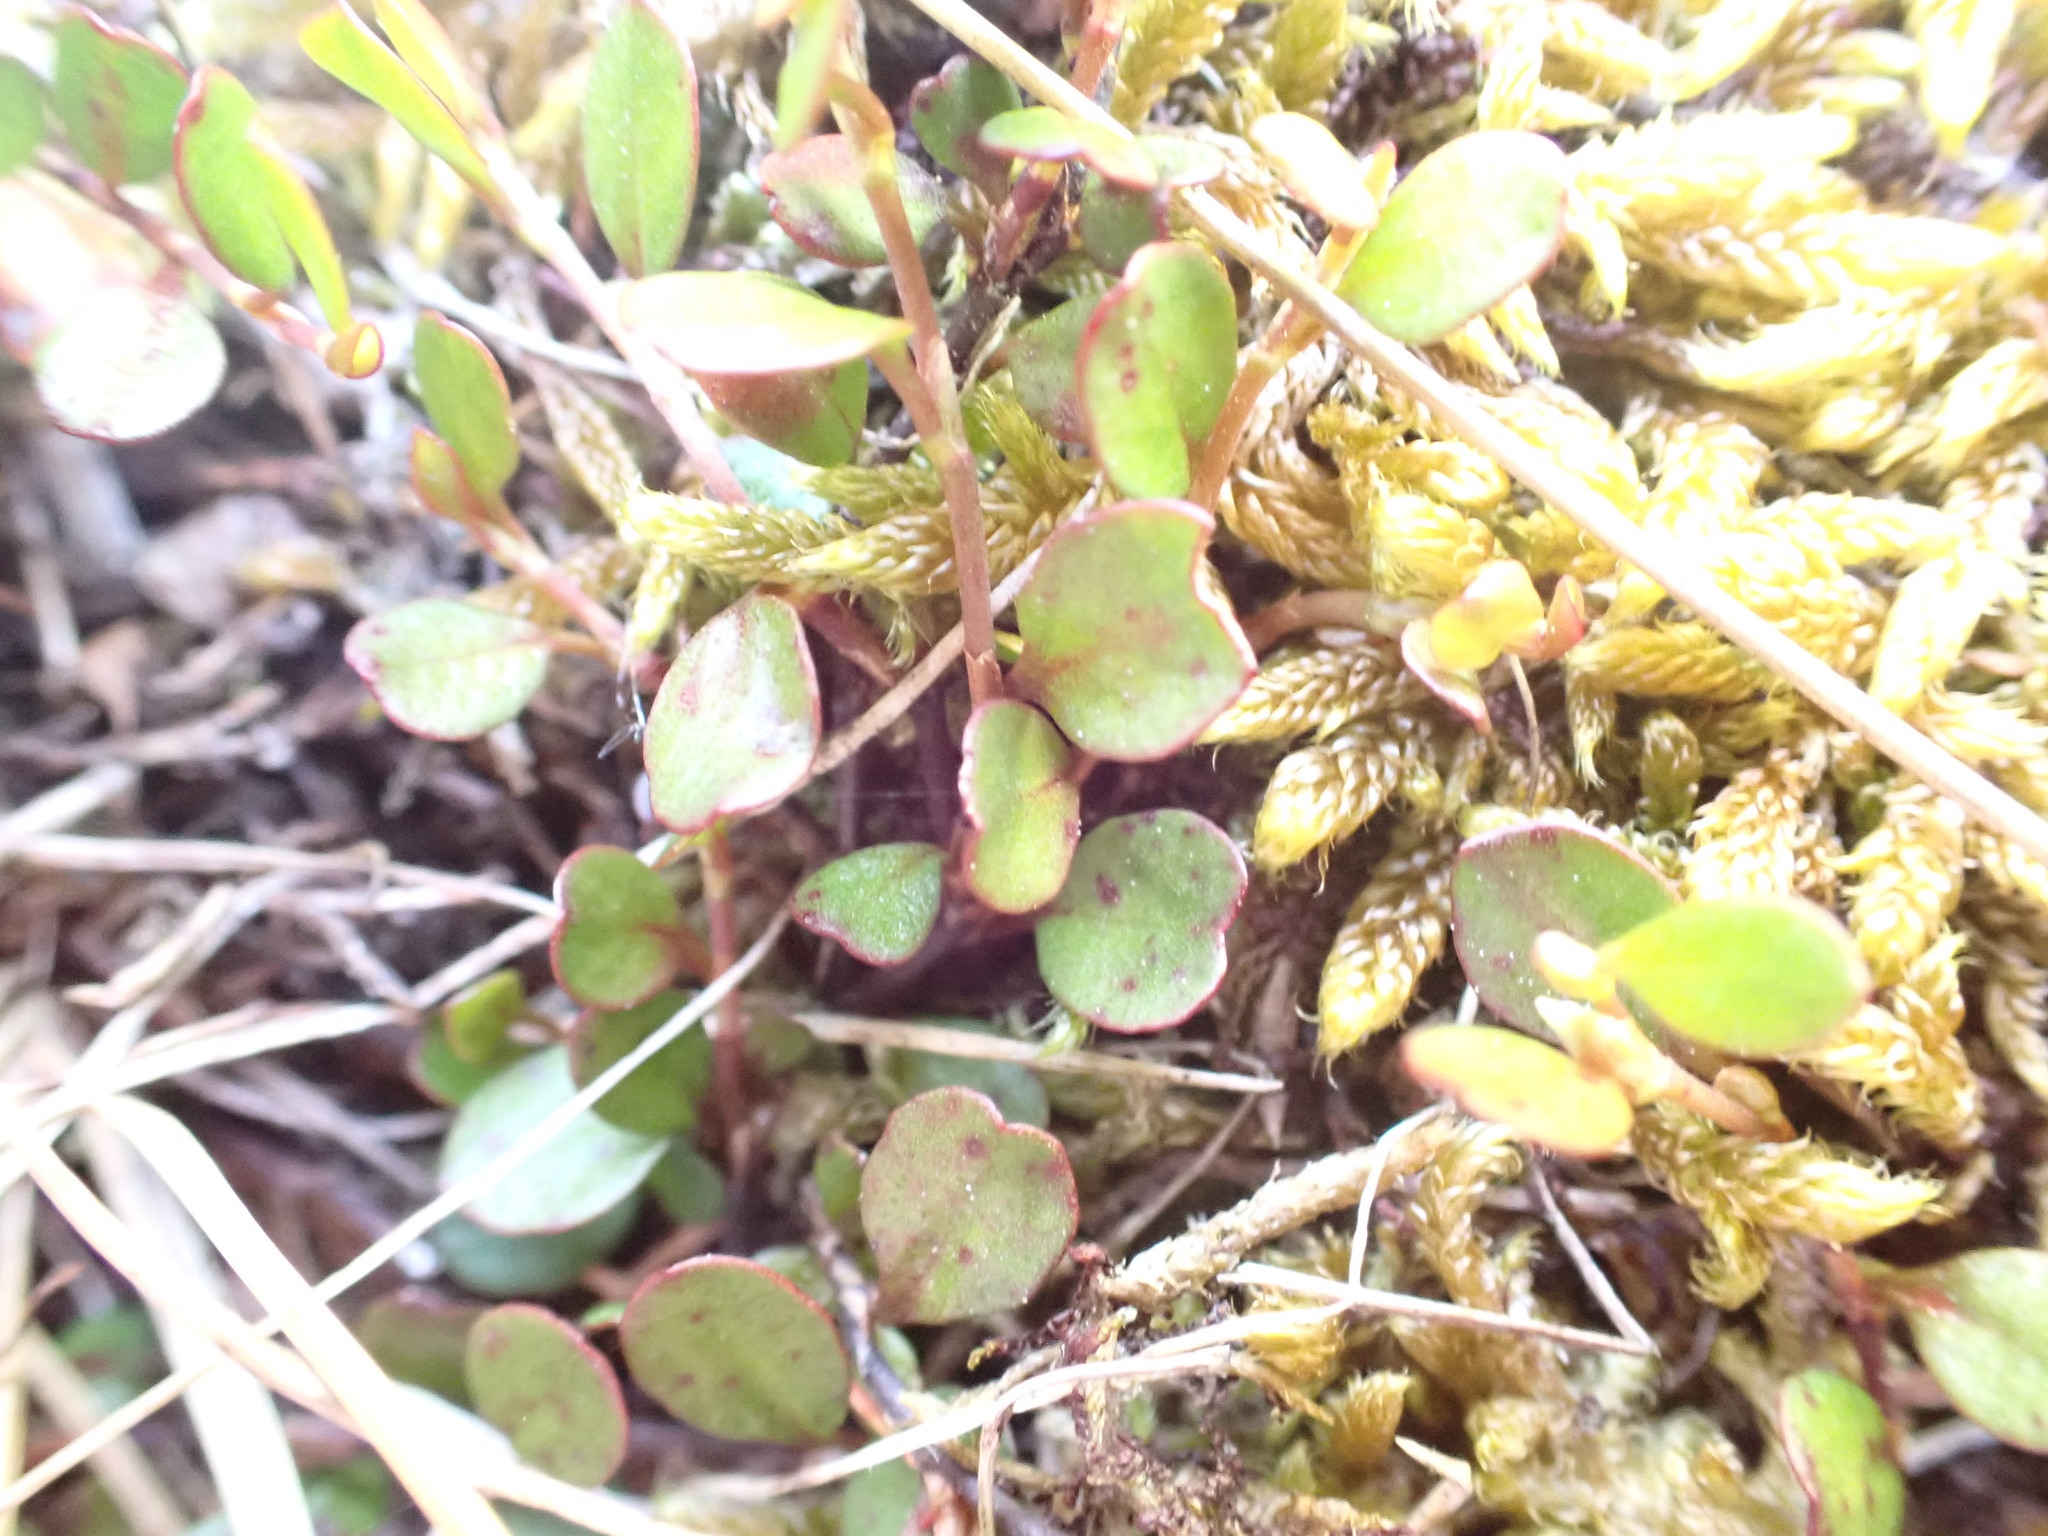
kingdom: Plantae
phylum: Tracheophyta
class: Magnoliopsida
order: Caryophyllales
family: Polygonaceae
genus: Muehlenbeckia
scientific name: Muehlenbeckia axillaris
